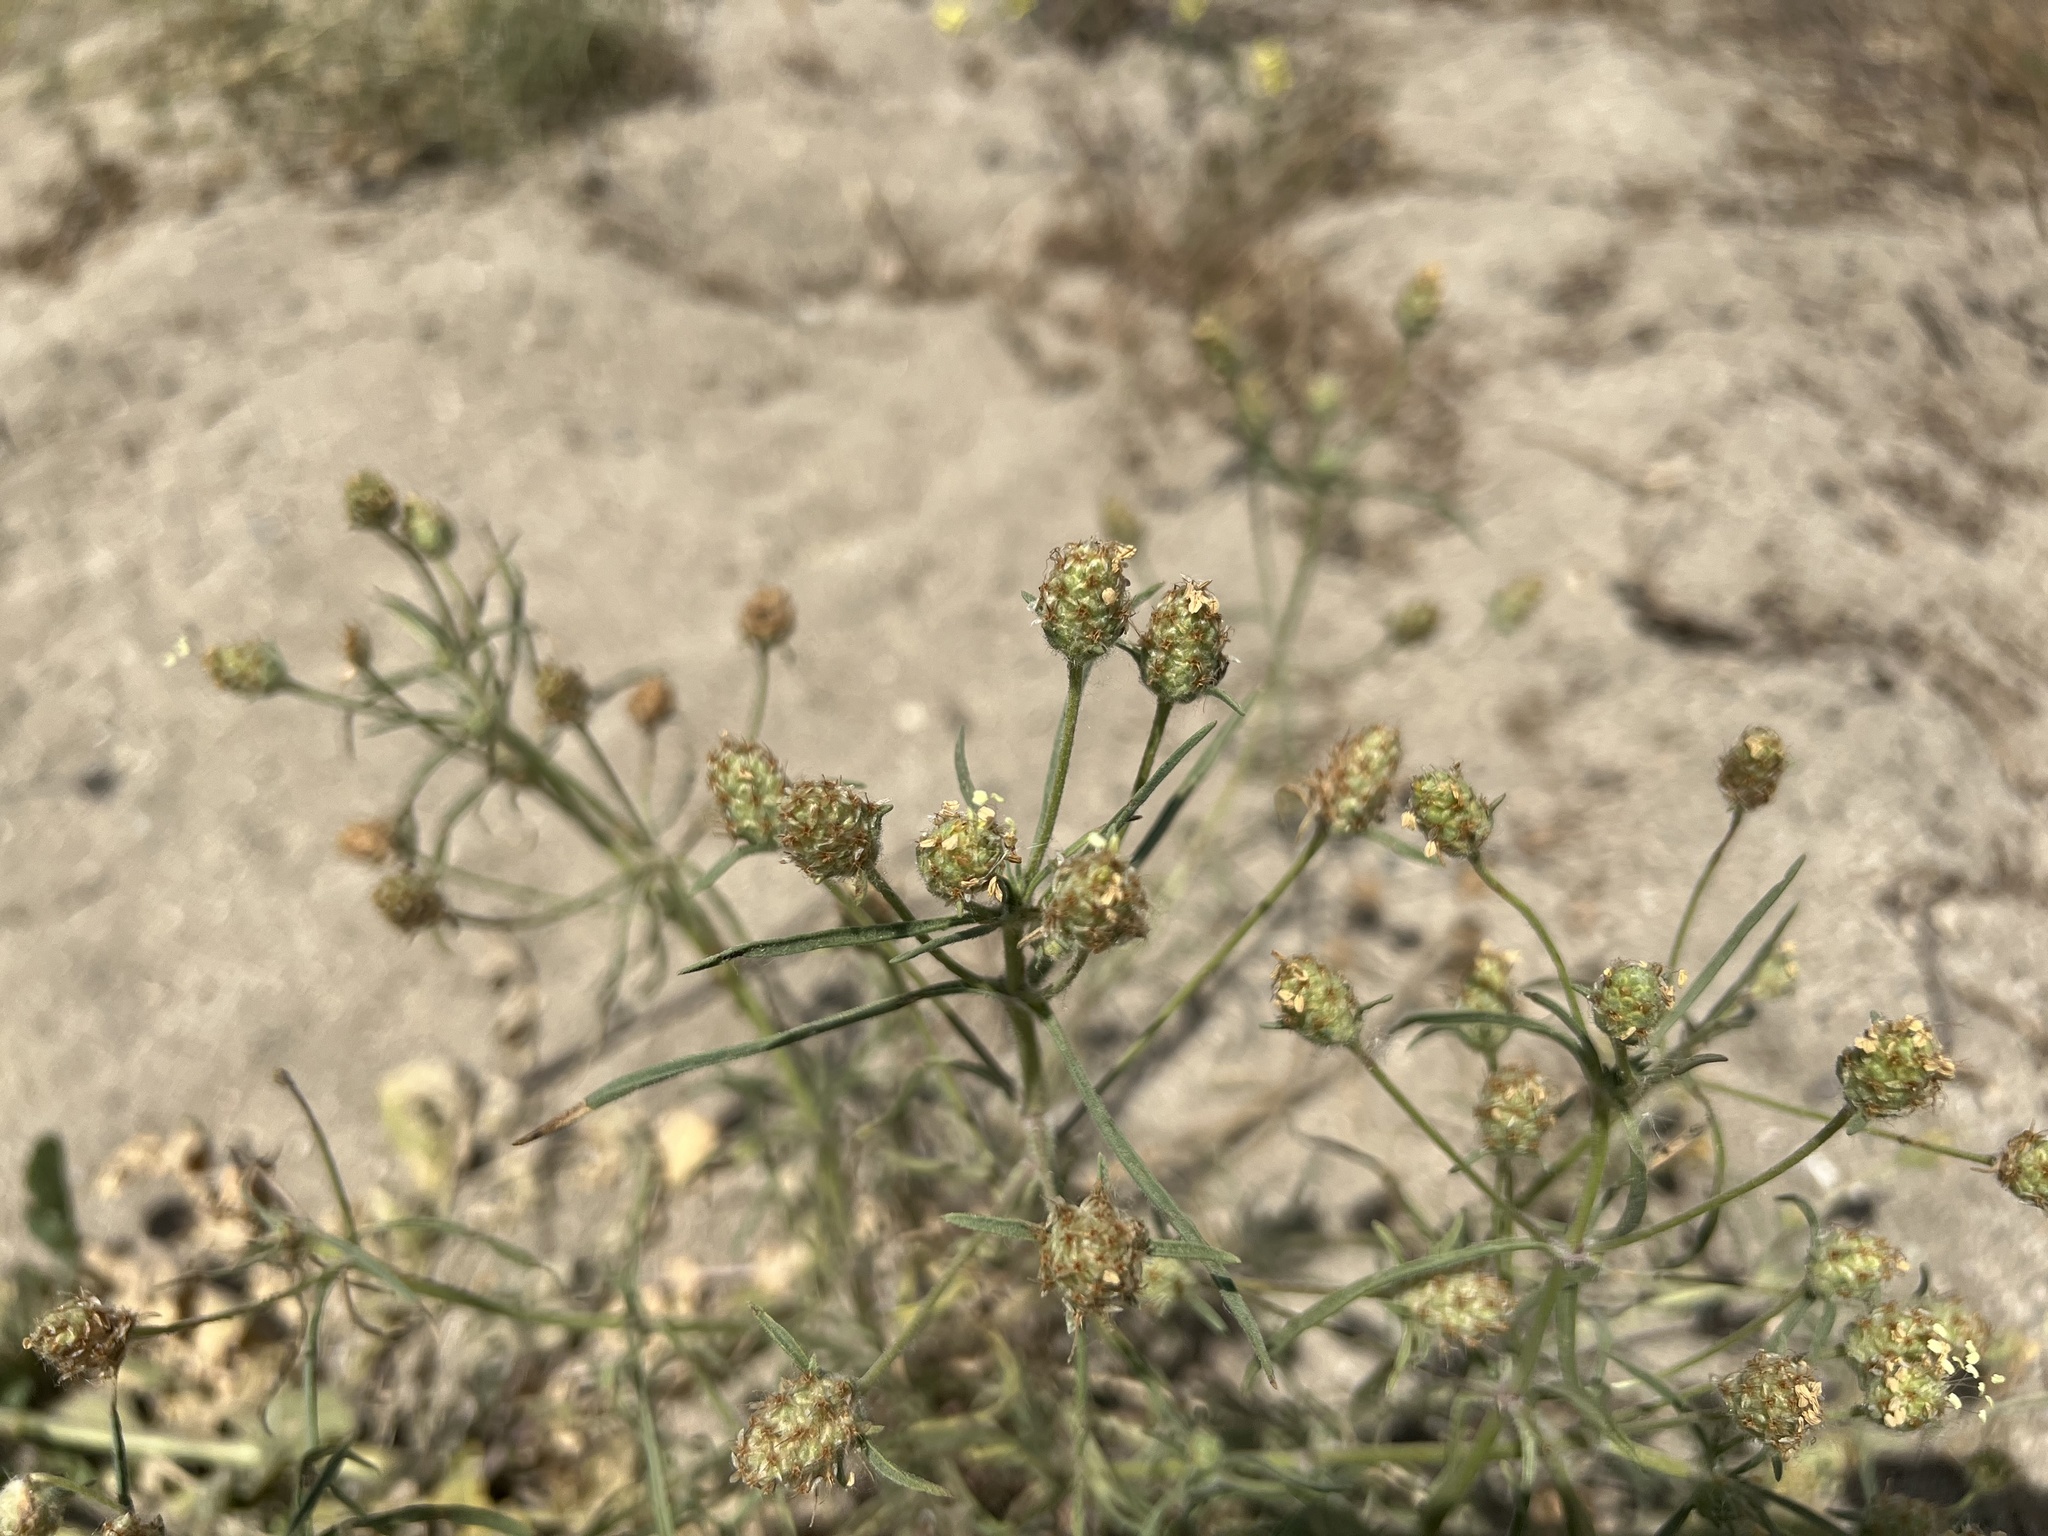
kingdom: Plantae
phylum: Tracheophyta
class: Magnoliopsida
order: Lamiales
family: Plantaginaceae
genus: Plantago
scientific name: Plantago arenaria
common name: Branched plantain
